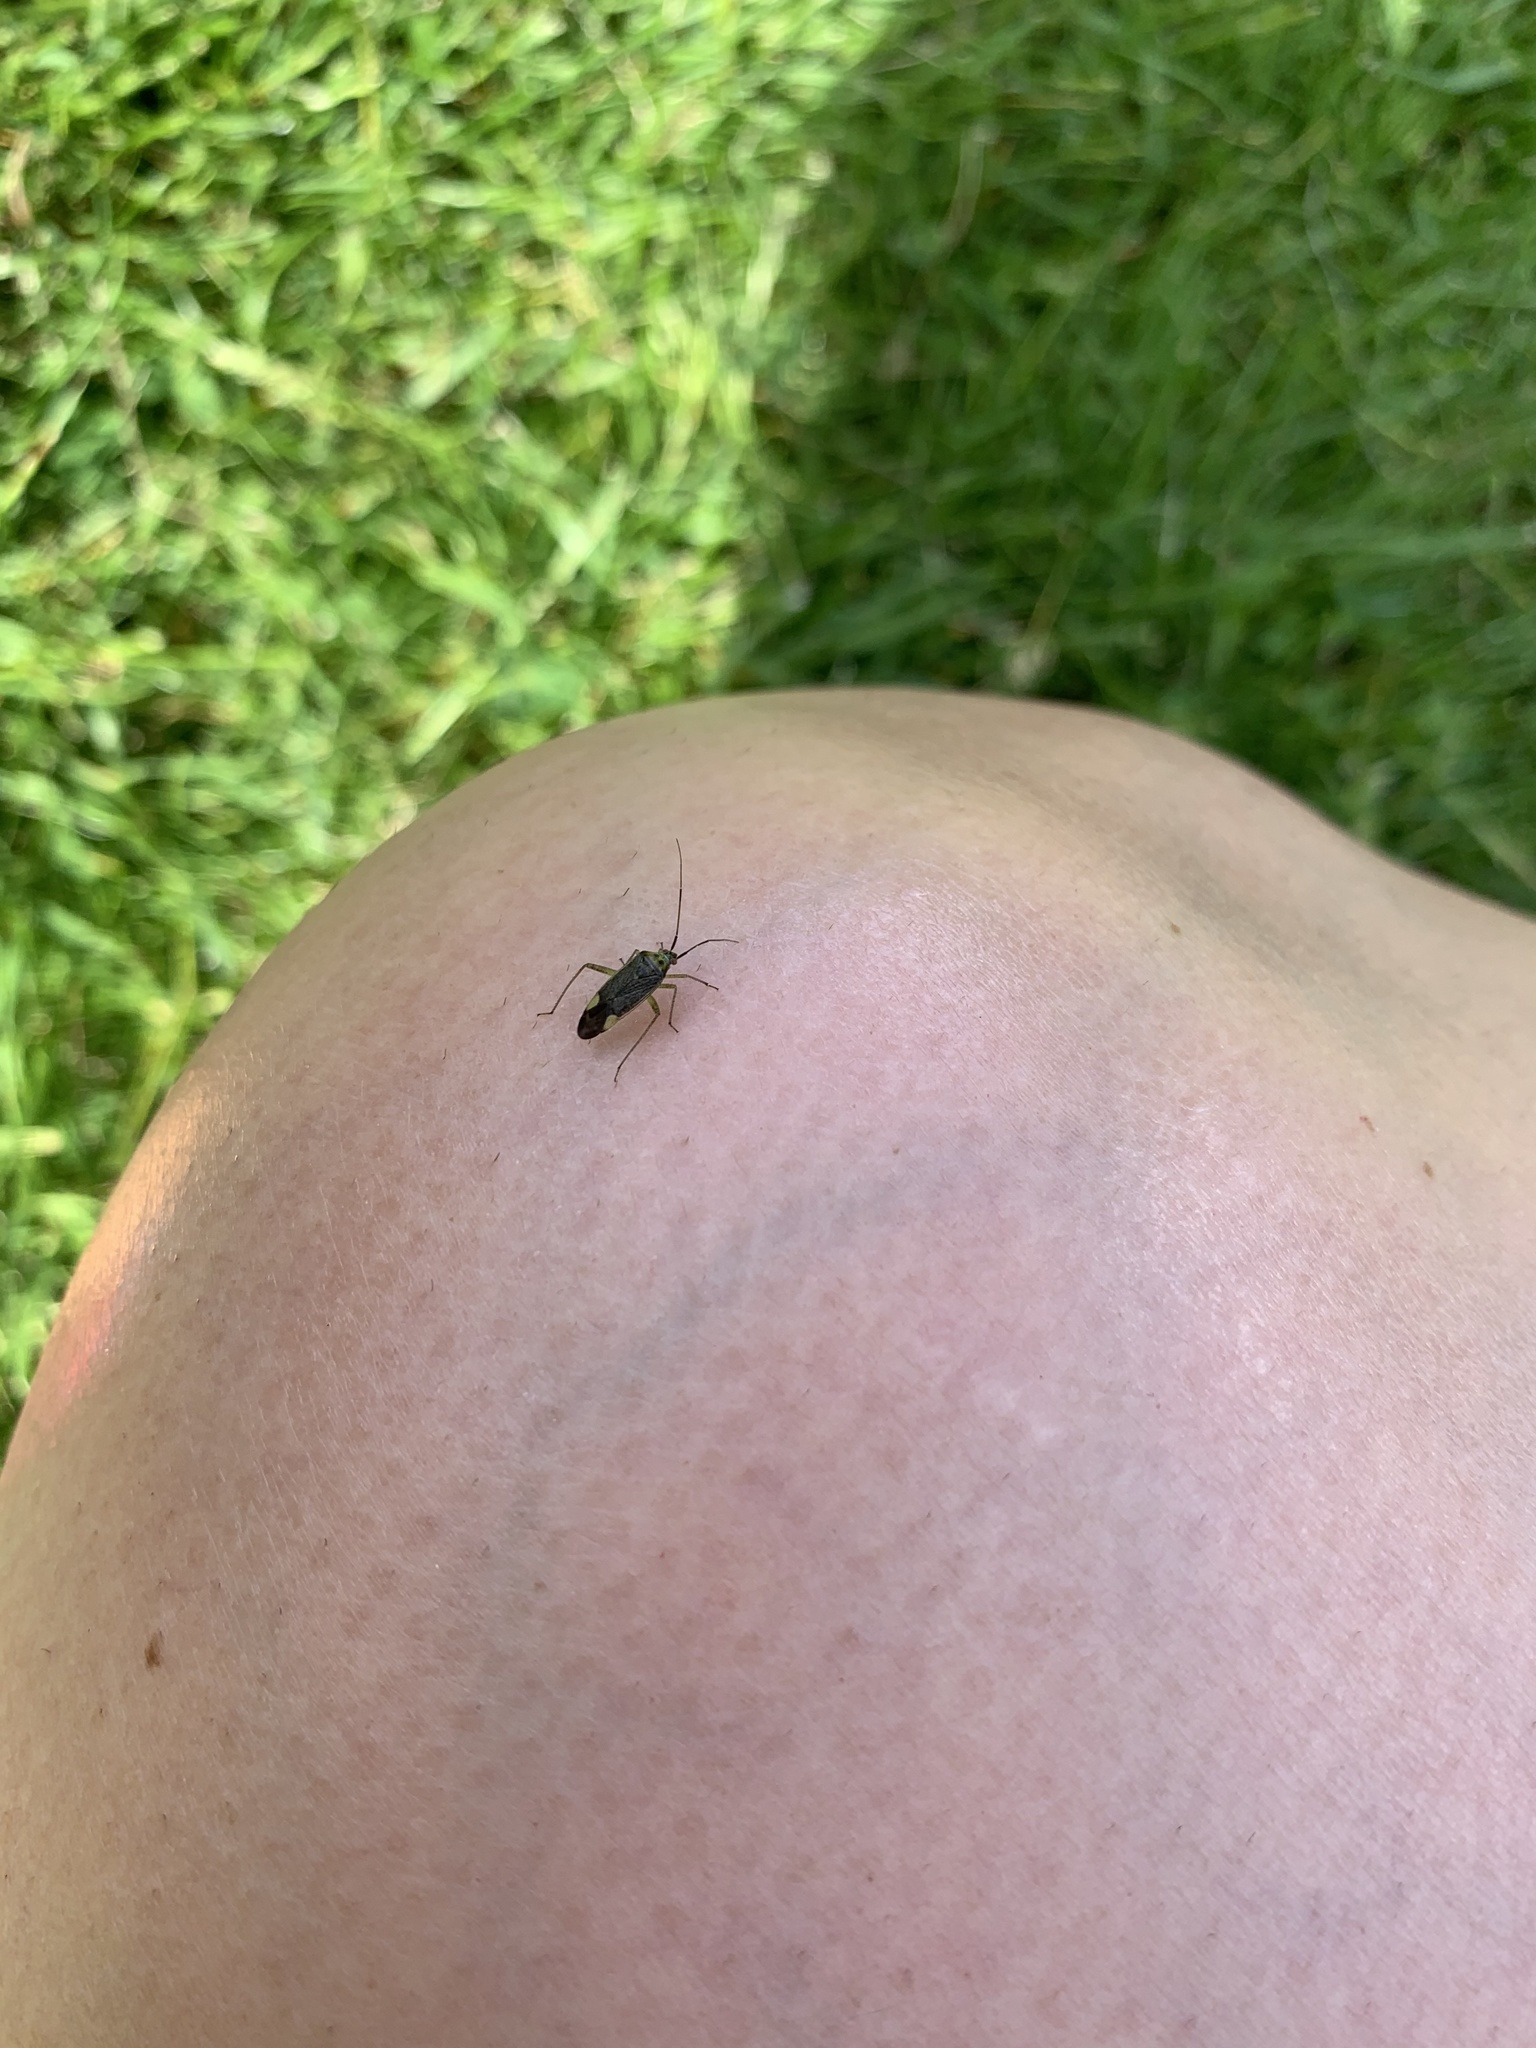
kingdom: Animalia
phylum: Arthropoda
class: Insecta
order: Hemiptera
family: Miridae
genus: Closterotomus
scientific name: Closterotomus trivialis
